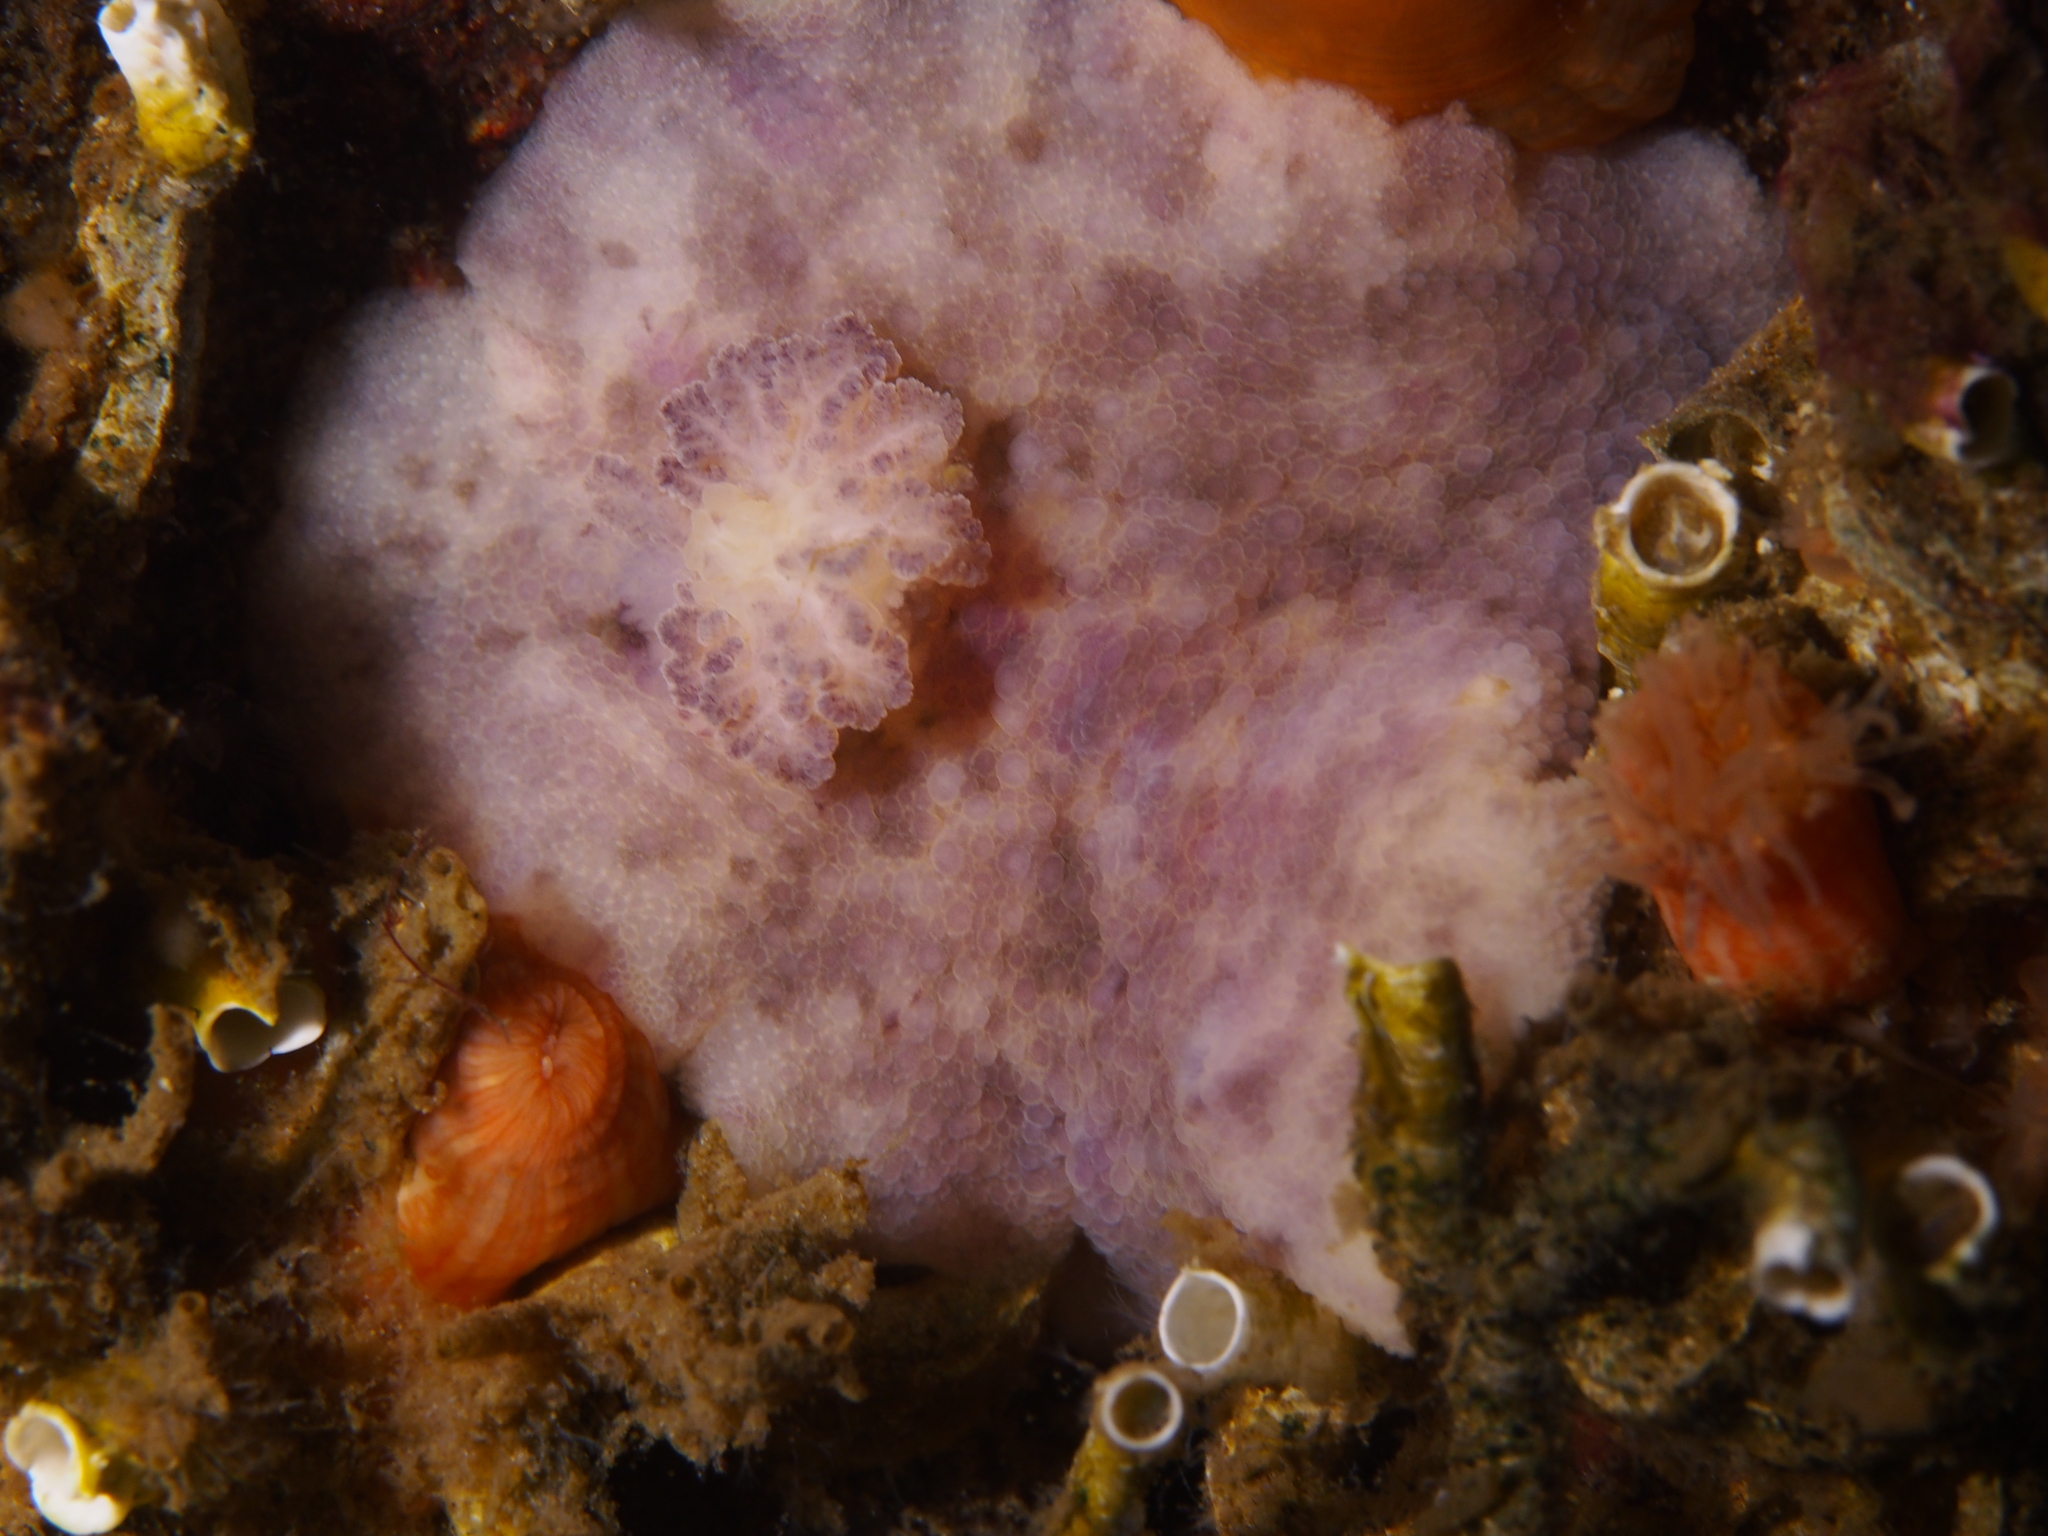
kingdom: Animalia
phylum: Mollusca
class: Gastropoda
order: Nudibranchia
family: Dorididae
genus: Doris
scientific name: Doris pseudoargus
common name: Sea lemon
